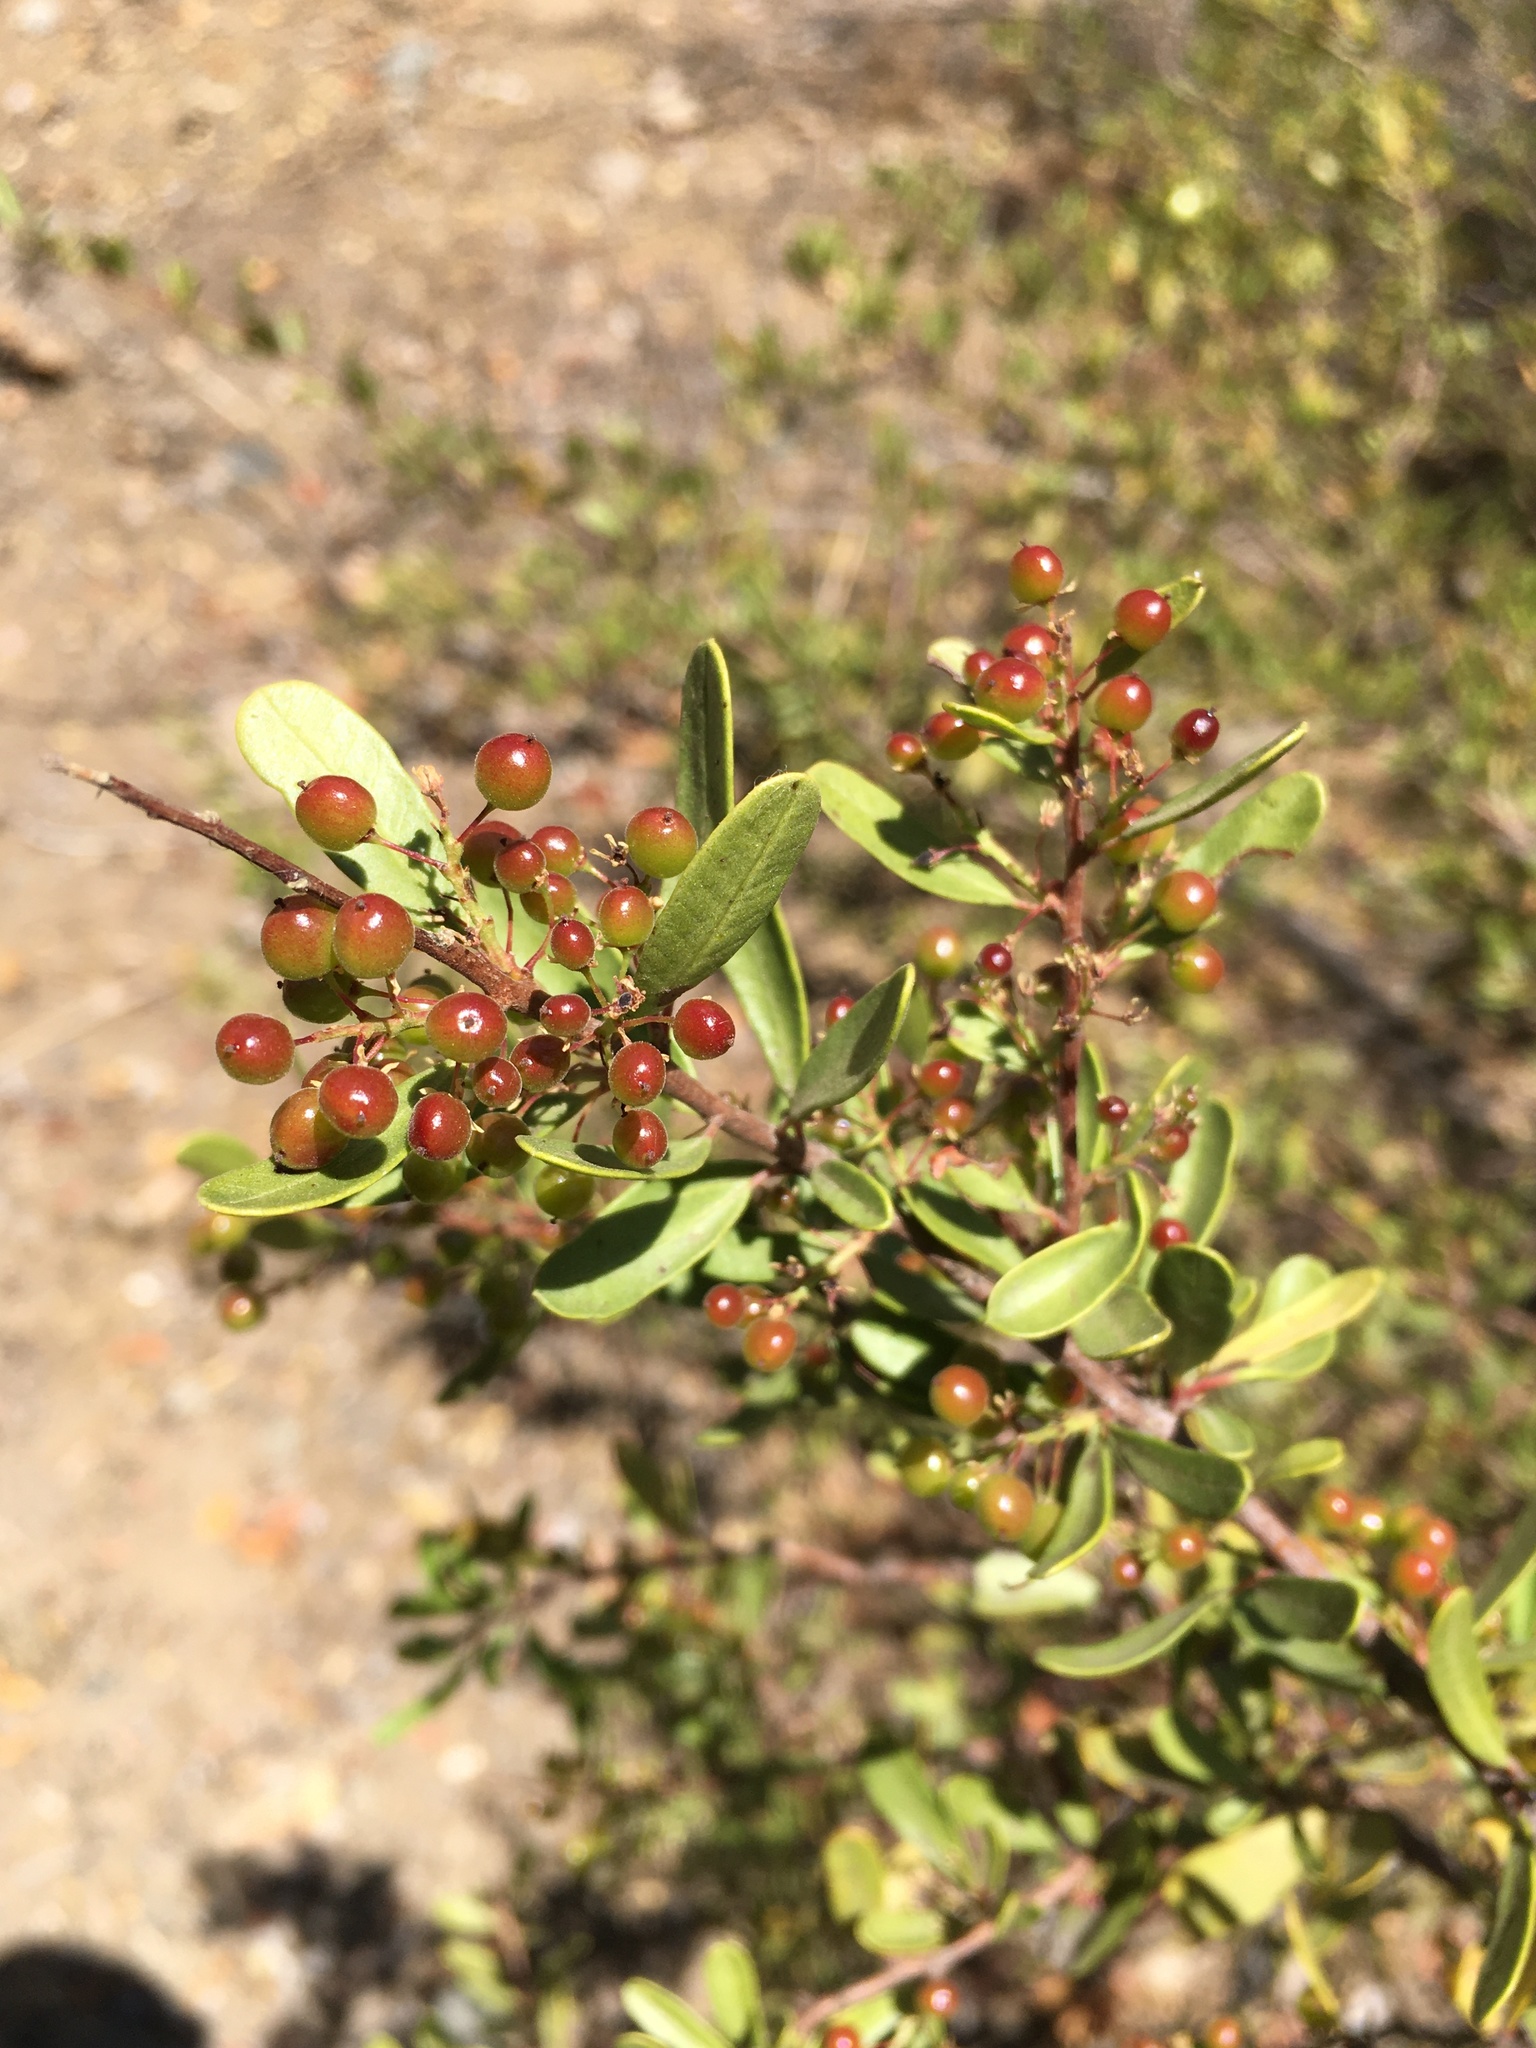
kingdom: Plantae
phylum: Tracheophyta
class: Magnoliopsida
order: Sapindales
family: Anacardiaceae
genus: Schinus
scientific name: Schinus polygama
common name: Hardee peppertree
